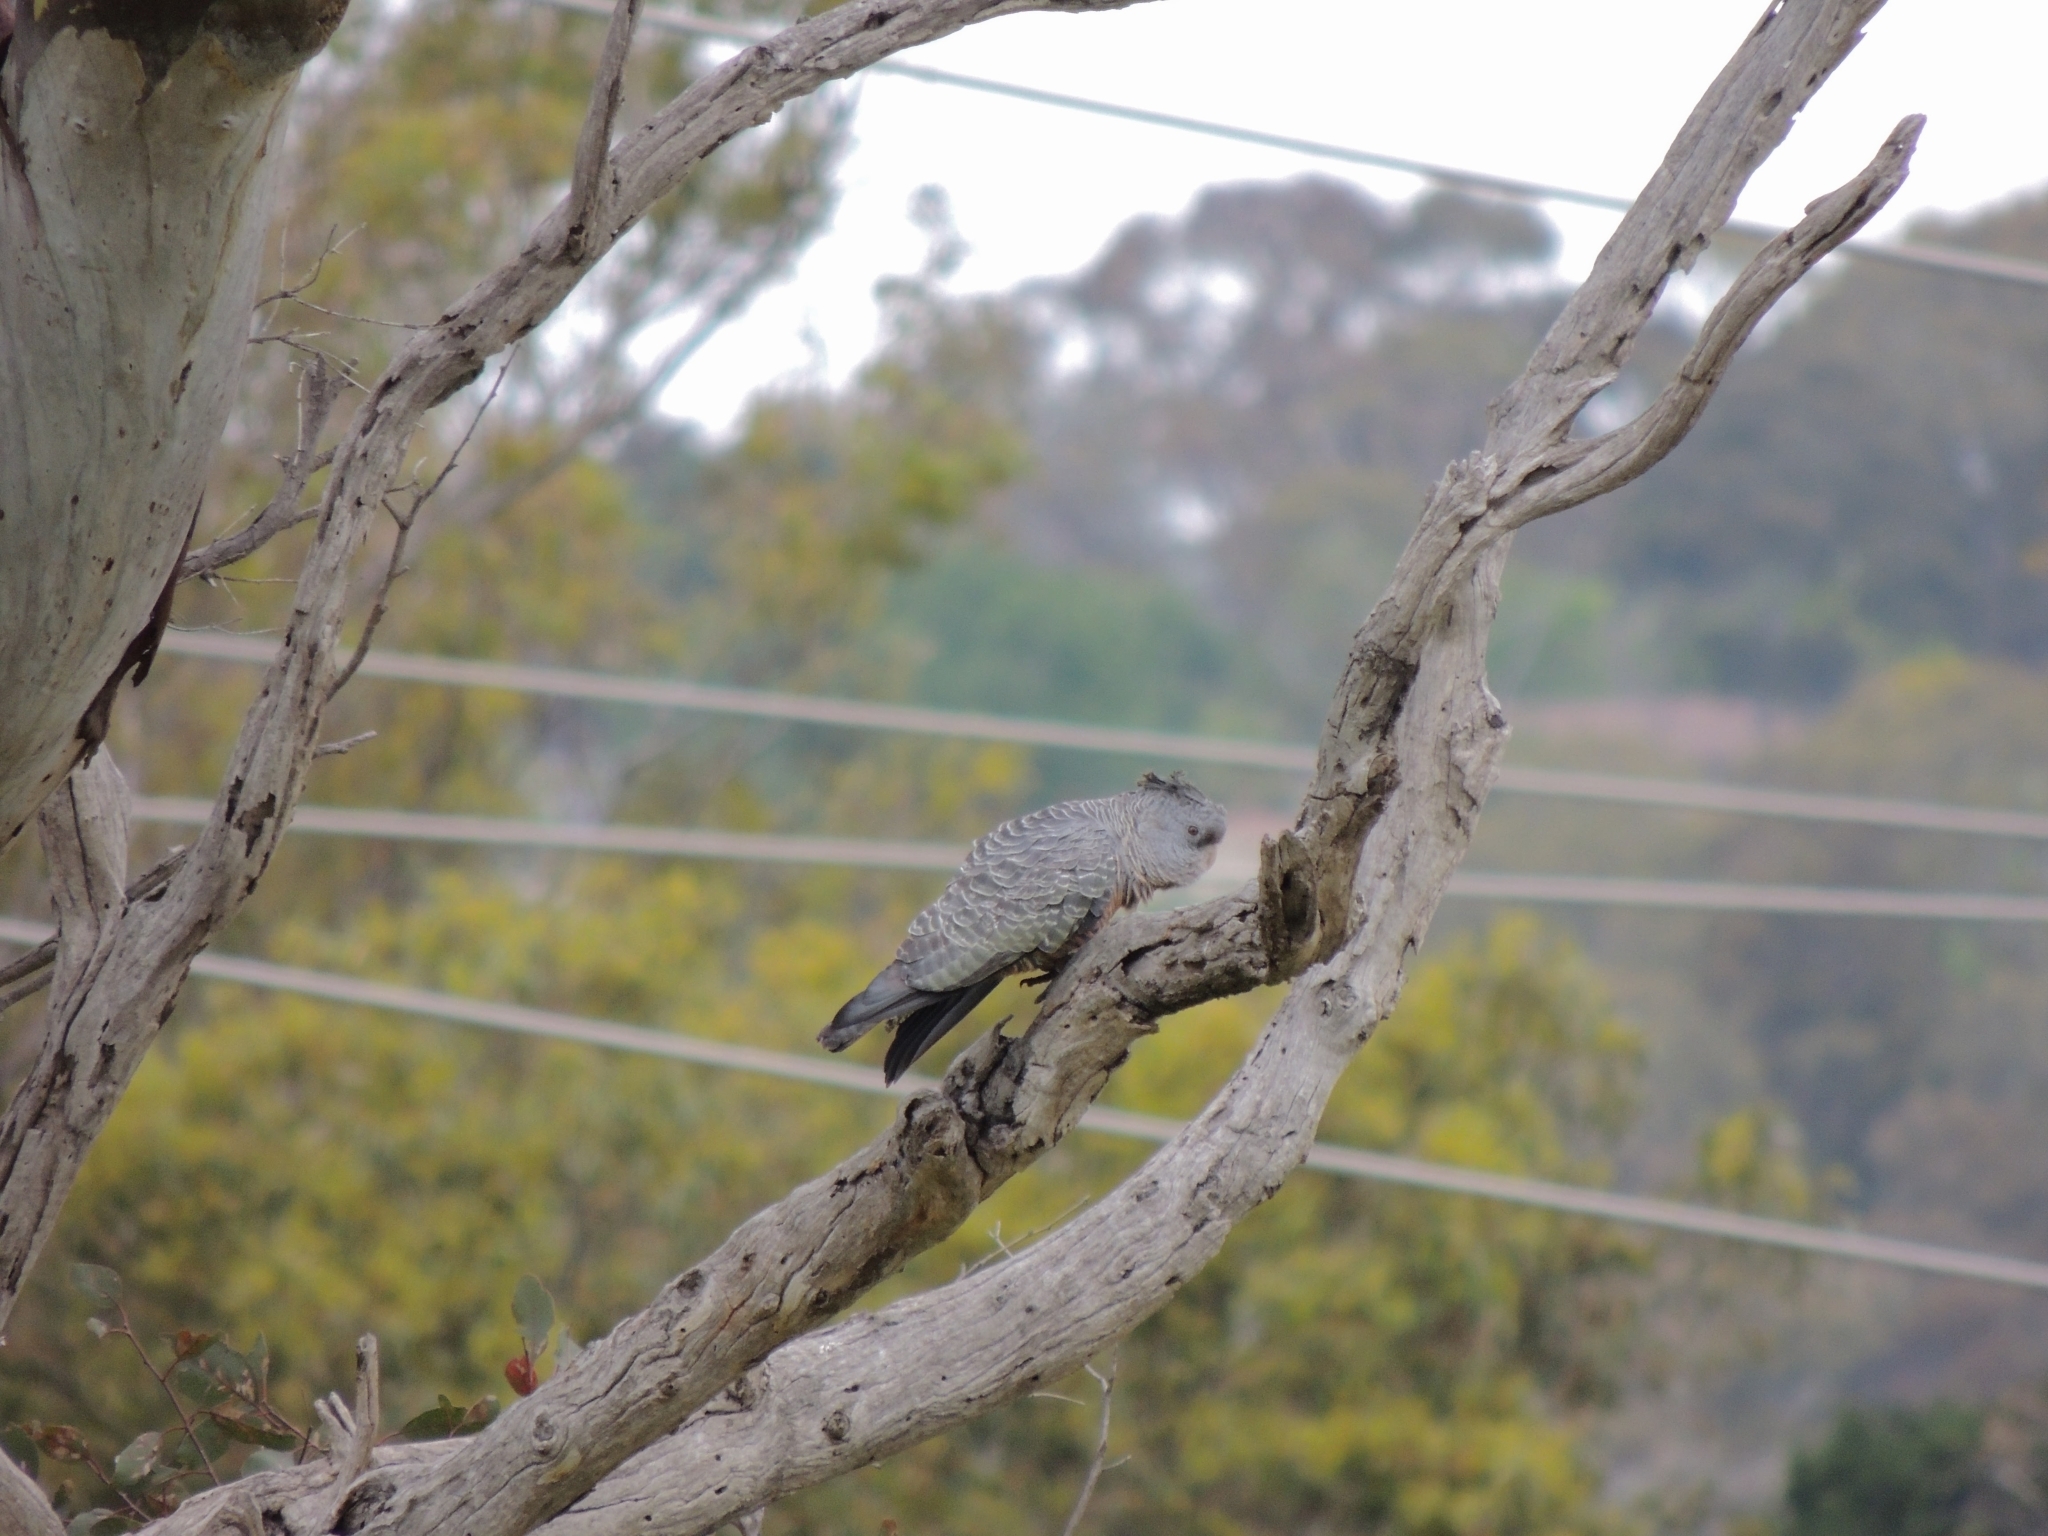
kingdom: Animalia
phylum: Chordata
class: Aves
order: Psittaciformes
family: Psittacidae
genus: Callocephalon
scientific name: Callocephalon fimbriatum
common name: Gang-gang cockatoo
